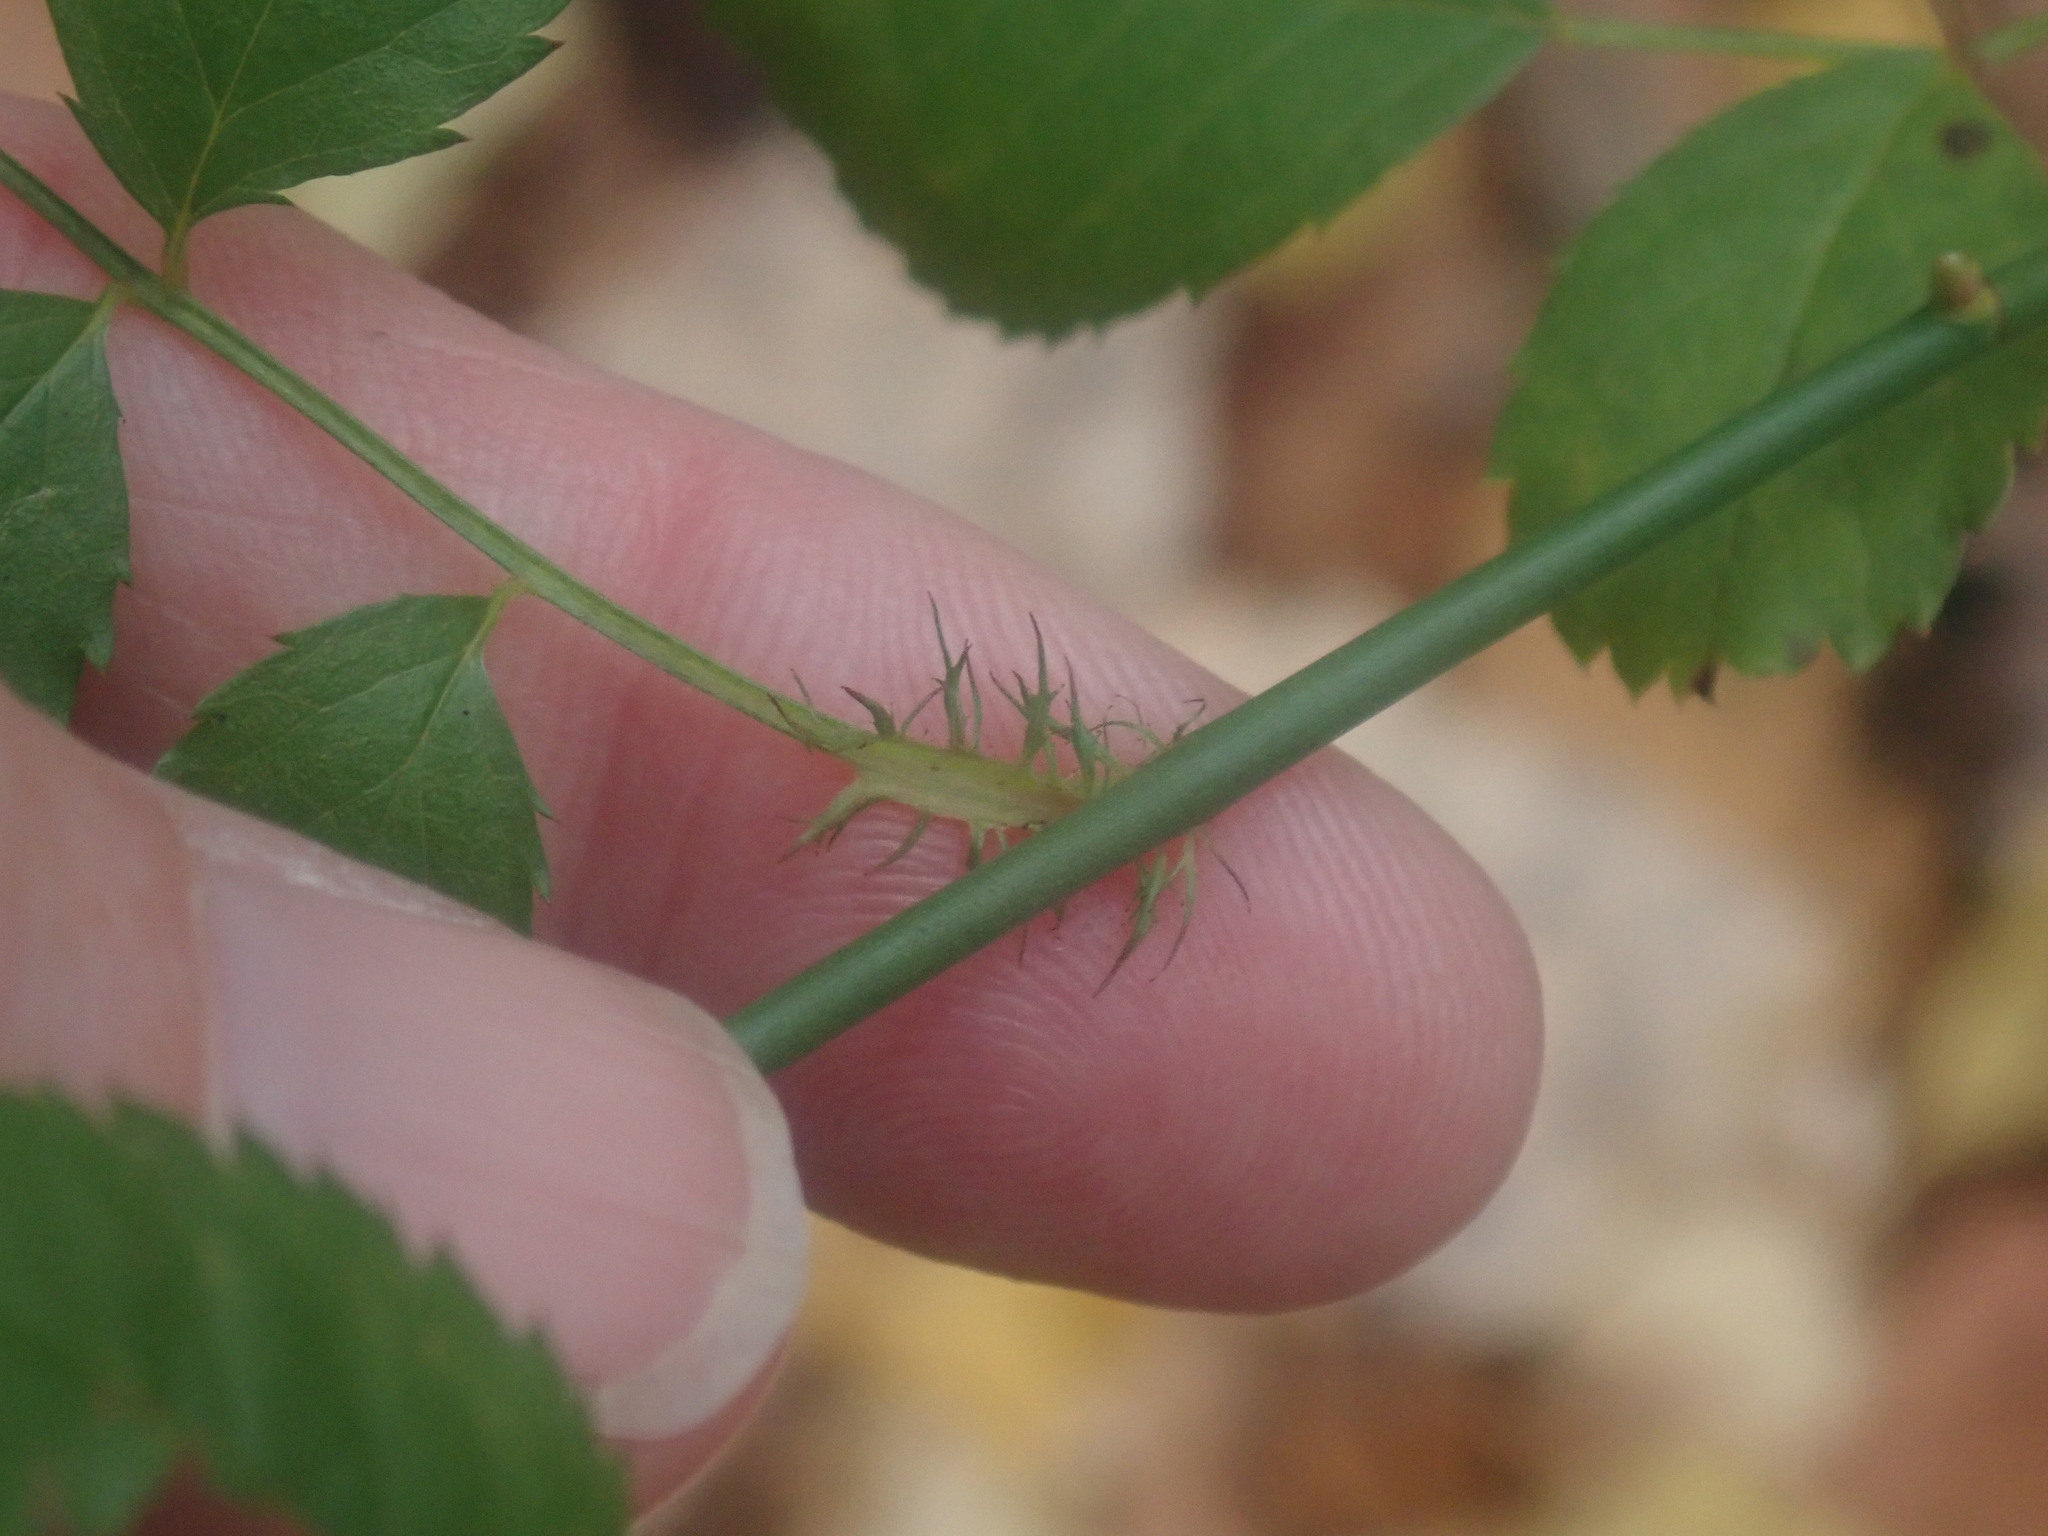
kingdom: Plantae
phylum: Tracheophyta
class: Magnoliopsida
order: Rosales
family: Rosaceae
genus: Rosa
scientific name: Rosa multiflora
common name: Multiflora rose
